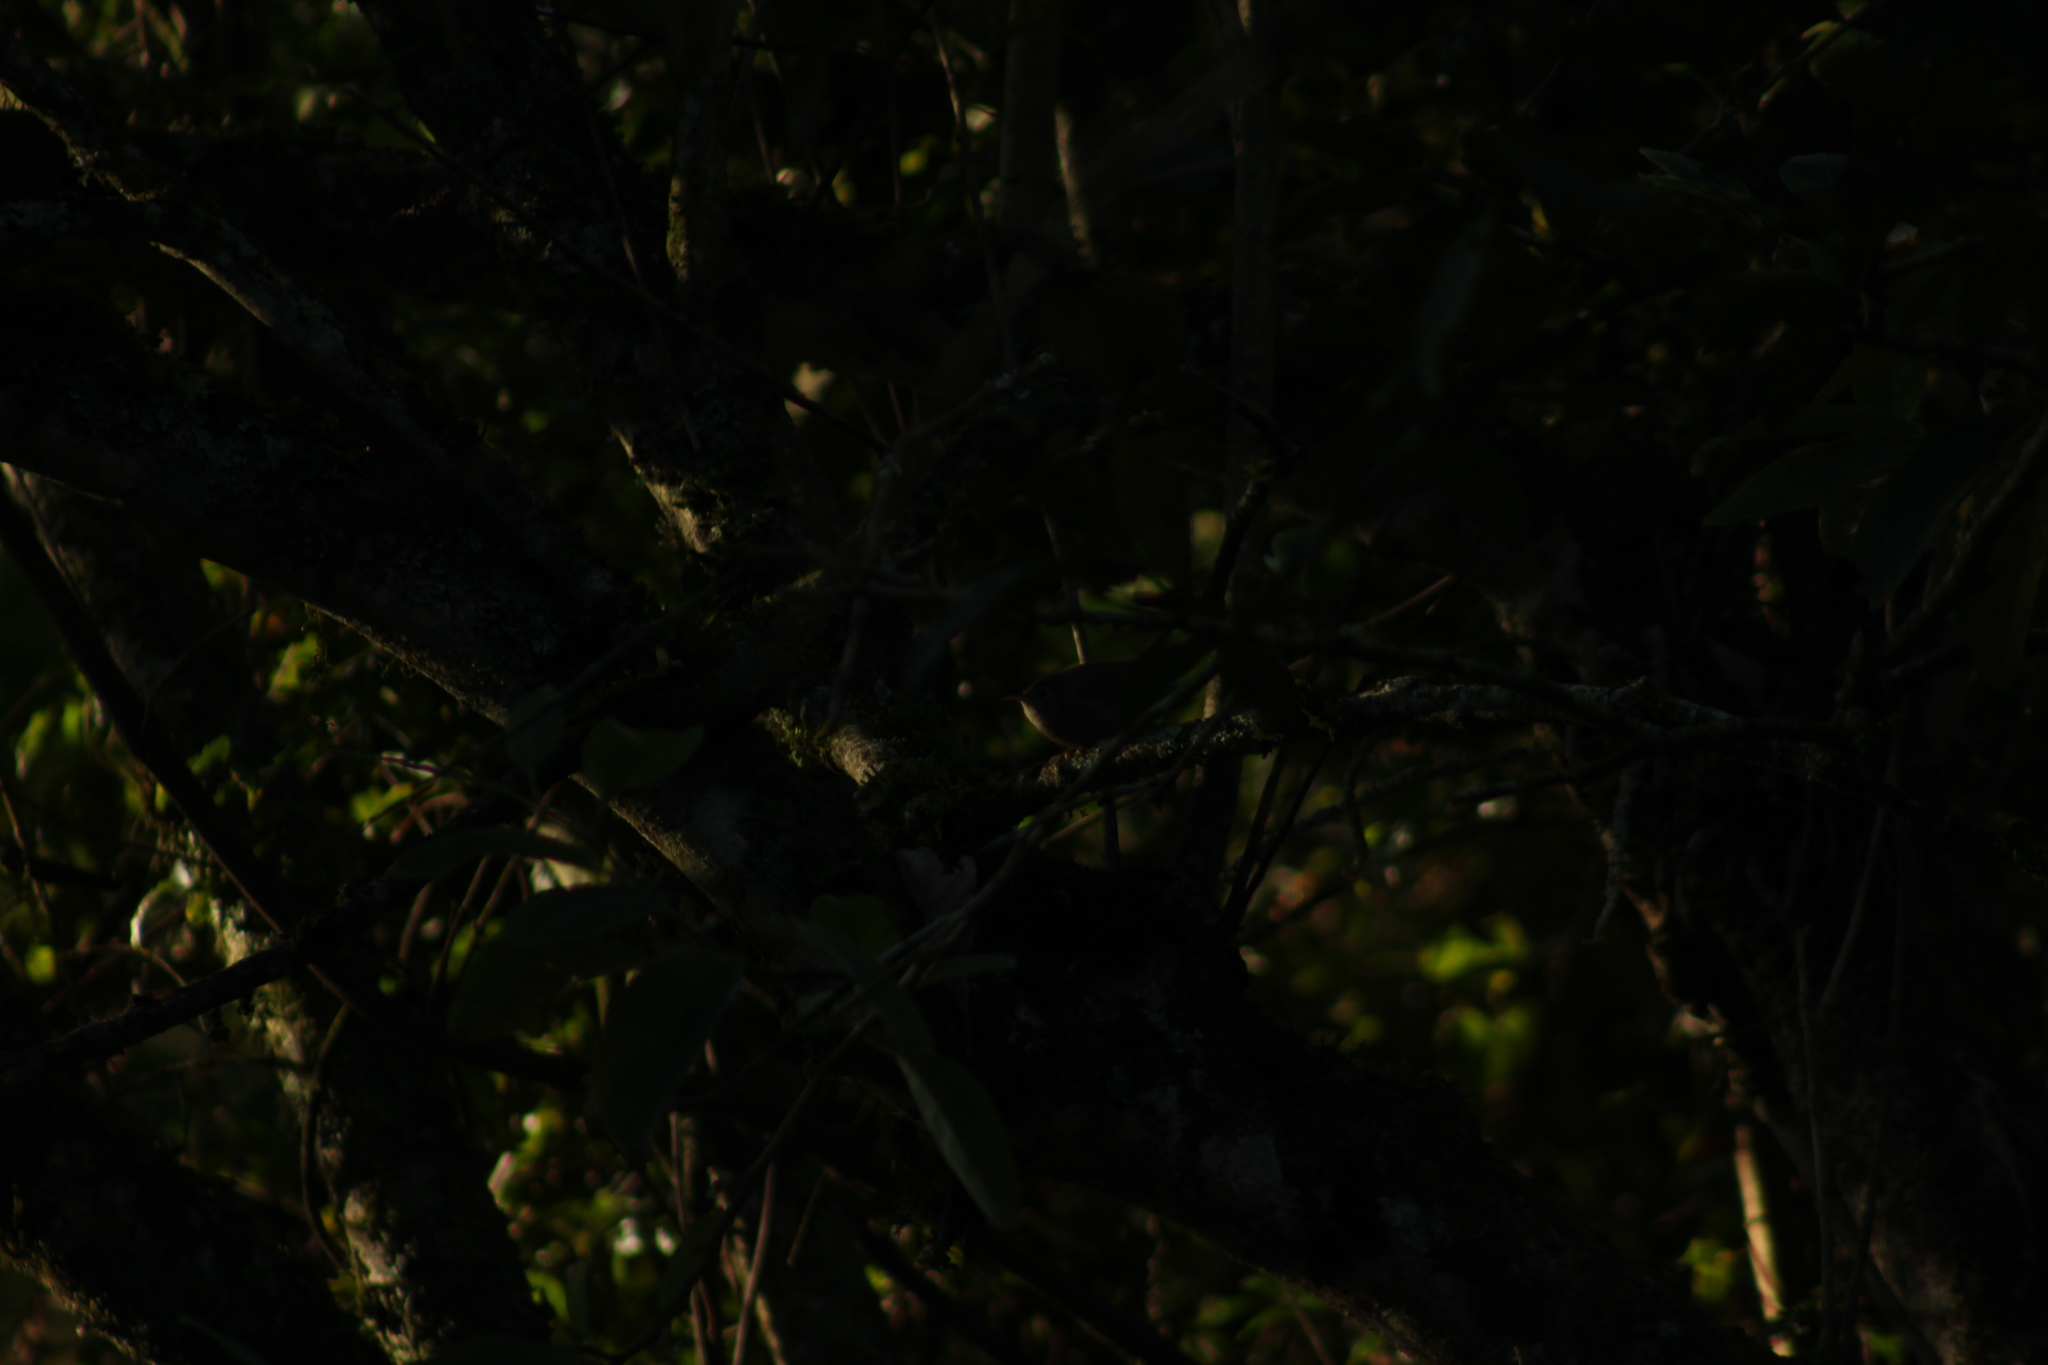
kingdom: Animalia
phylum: Chordata
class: Aves
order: Passeriformes
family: Troglodytidae
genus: Troglodytes
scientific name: Troglodytes aedon
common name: House wren
